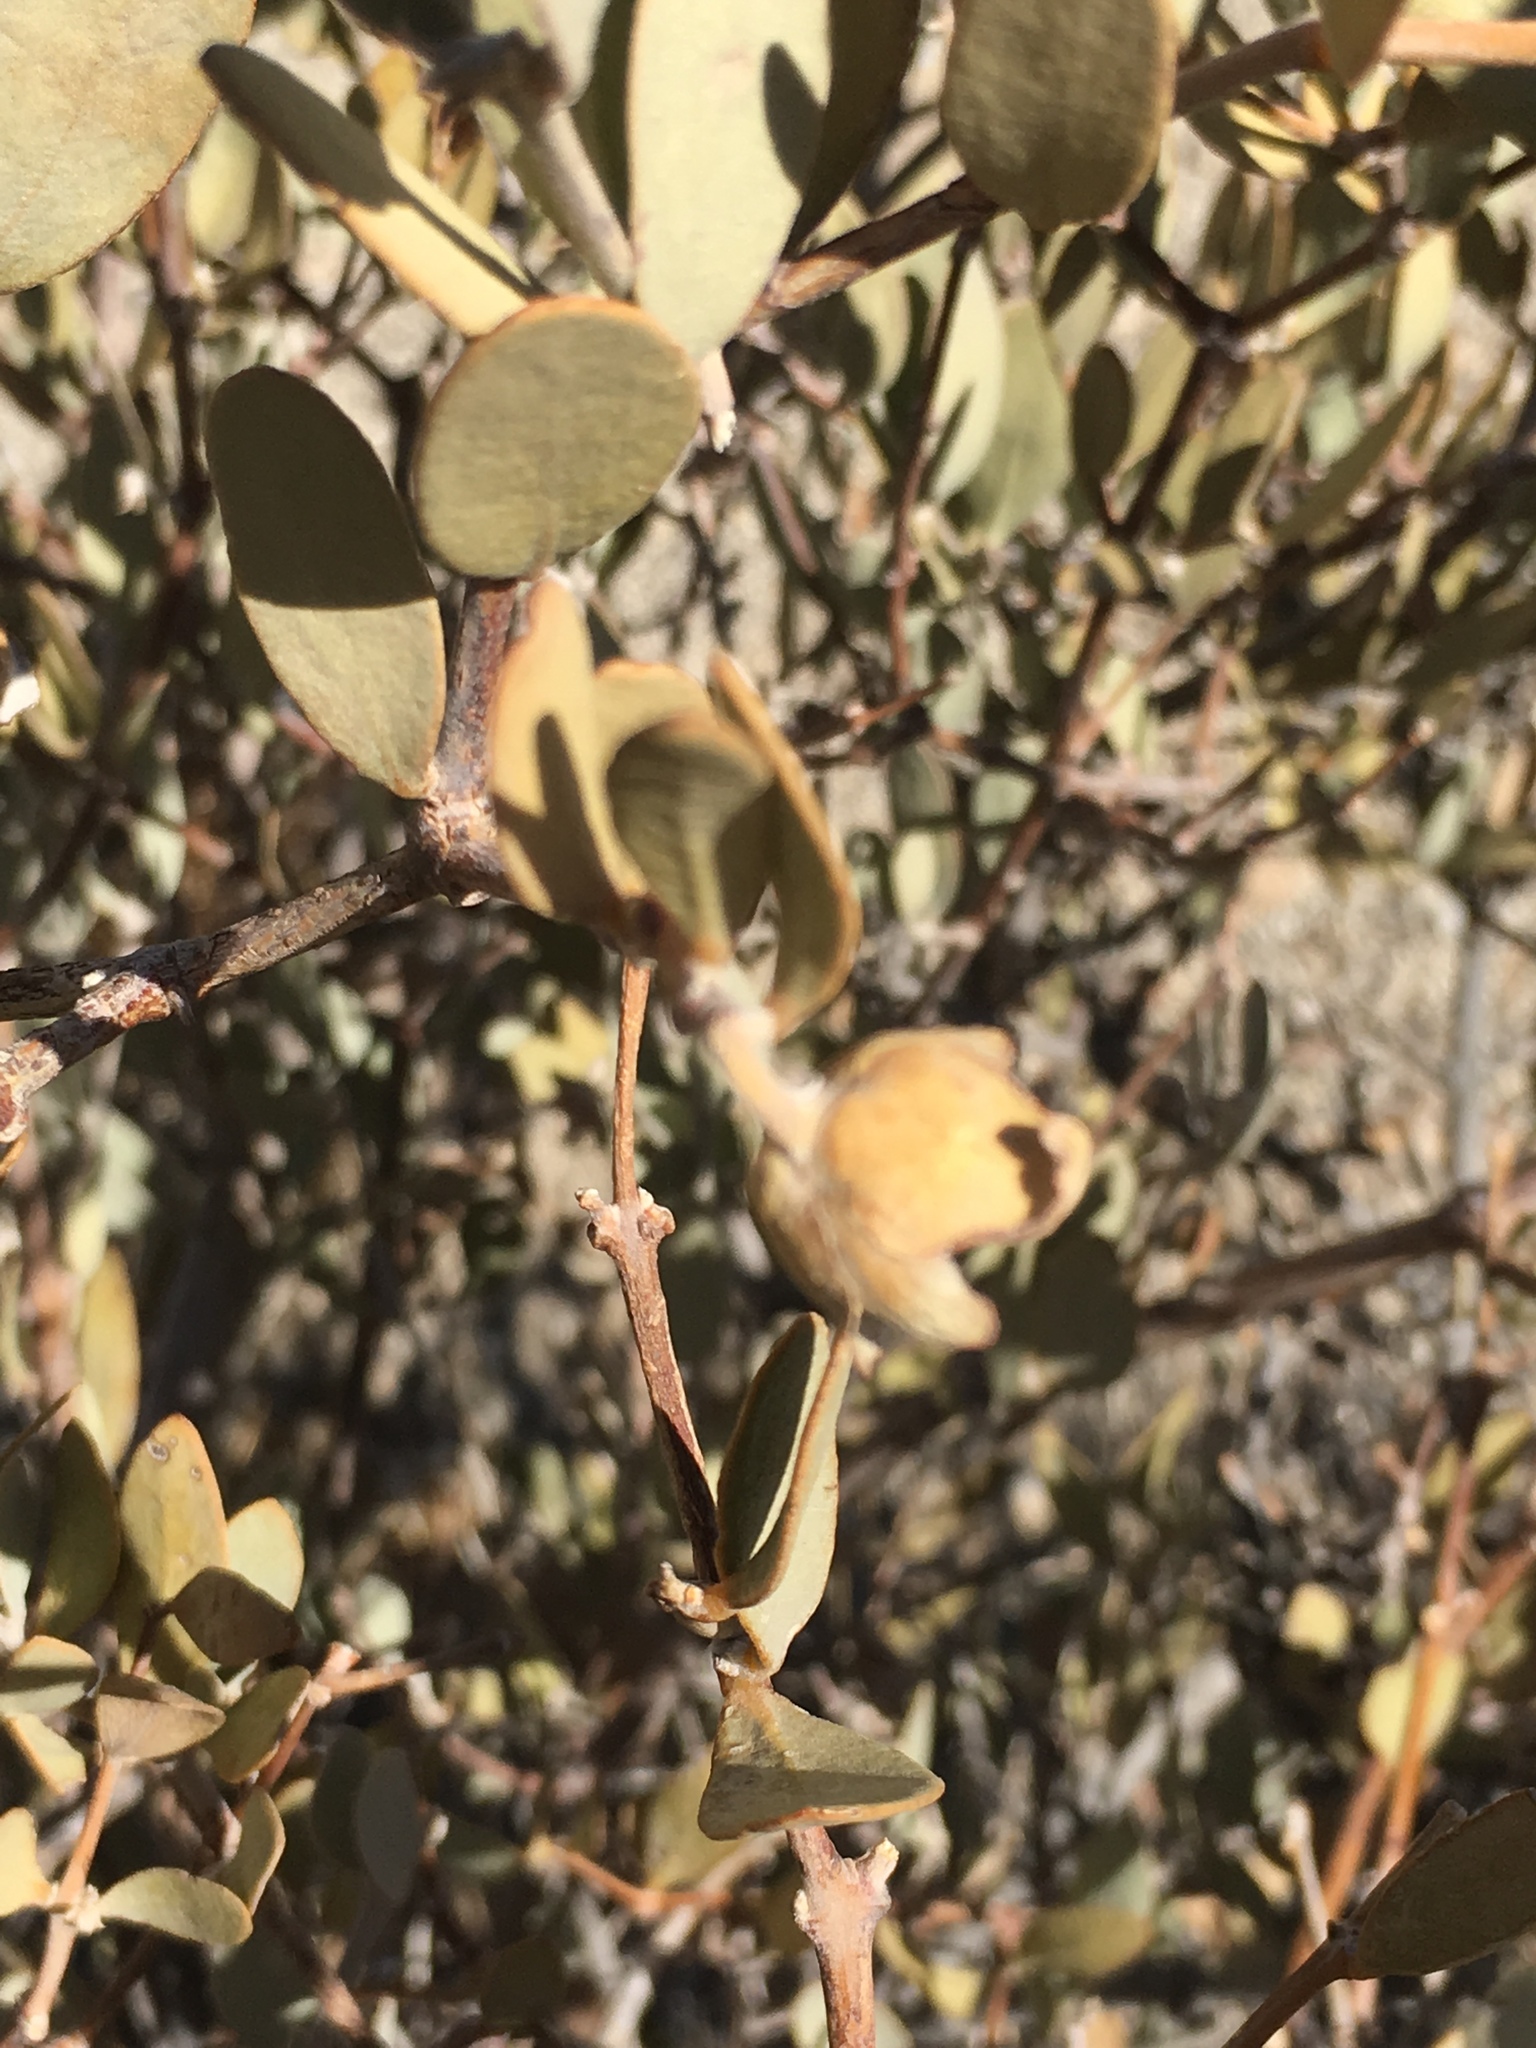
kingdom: Plantae
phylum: Tracheophyta
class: Magnoliopsida
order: Caryophyllales
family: Simmondsiaceae
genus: Simmondsia
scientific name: Simmondsia chinensis
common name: Jojoba
